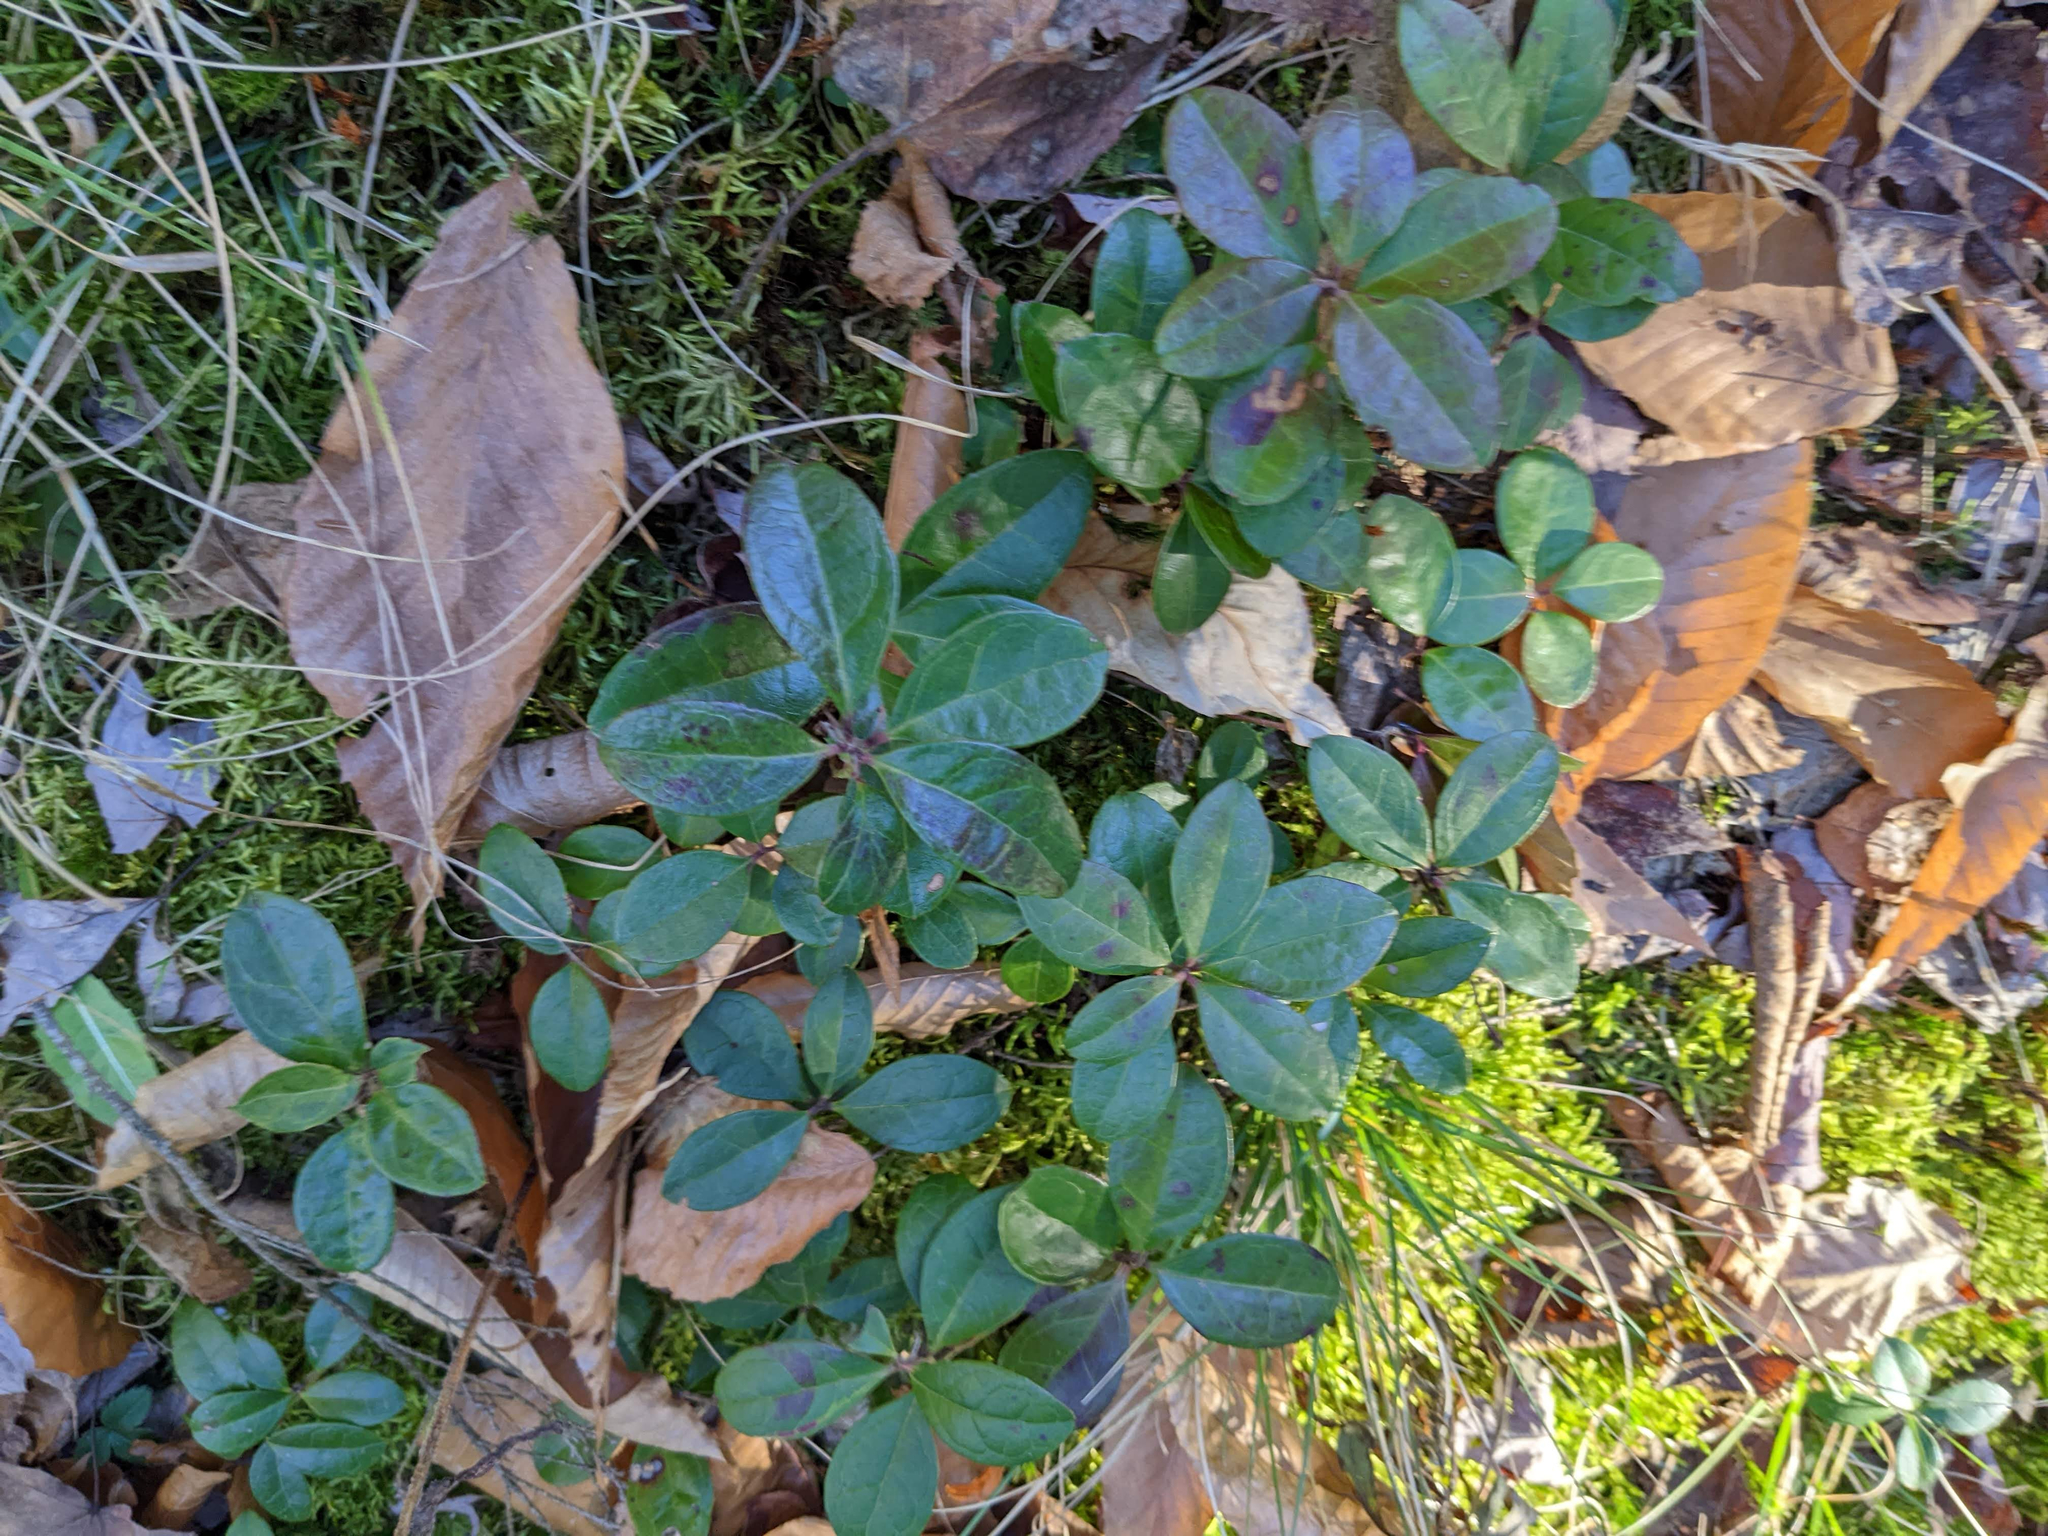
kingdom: Plantae
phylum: Tracheophyta
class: Magnoliopsida
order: Ericales
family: Ericaceae
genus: Gaultheria
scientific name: Gaultheria procumbens
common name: Checkerberry
